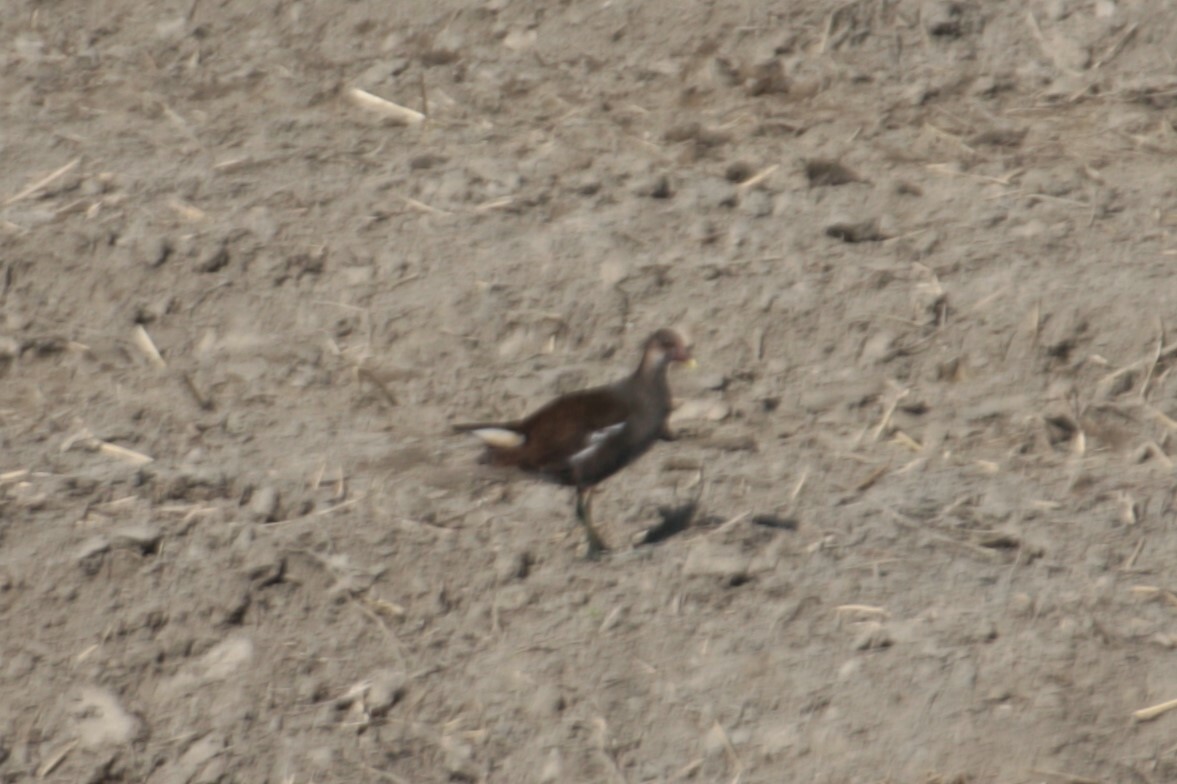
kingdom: Animalia
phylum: Chordata
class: Aves
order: Gruiformes
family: Rallidae
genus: Gallinula
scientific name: Gallinula chloropus
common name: Common moorhen
